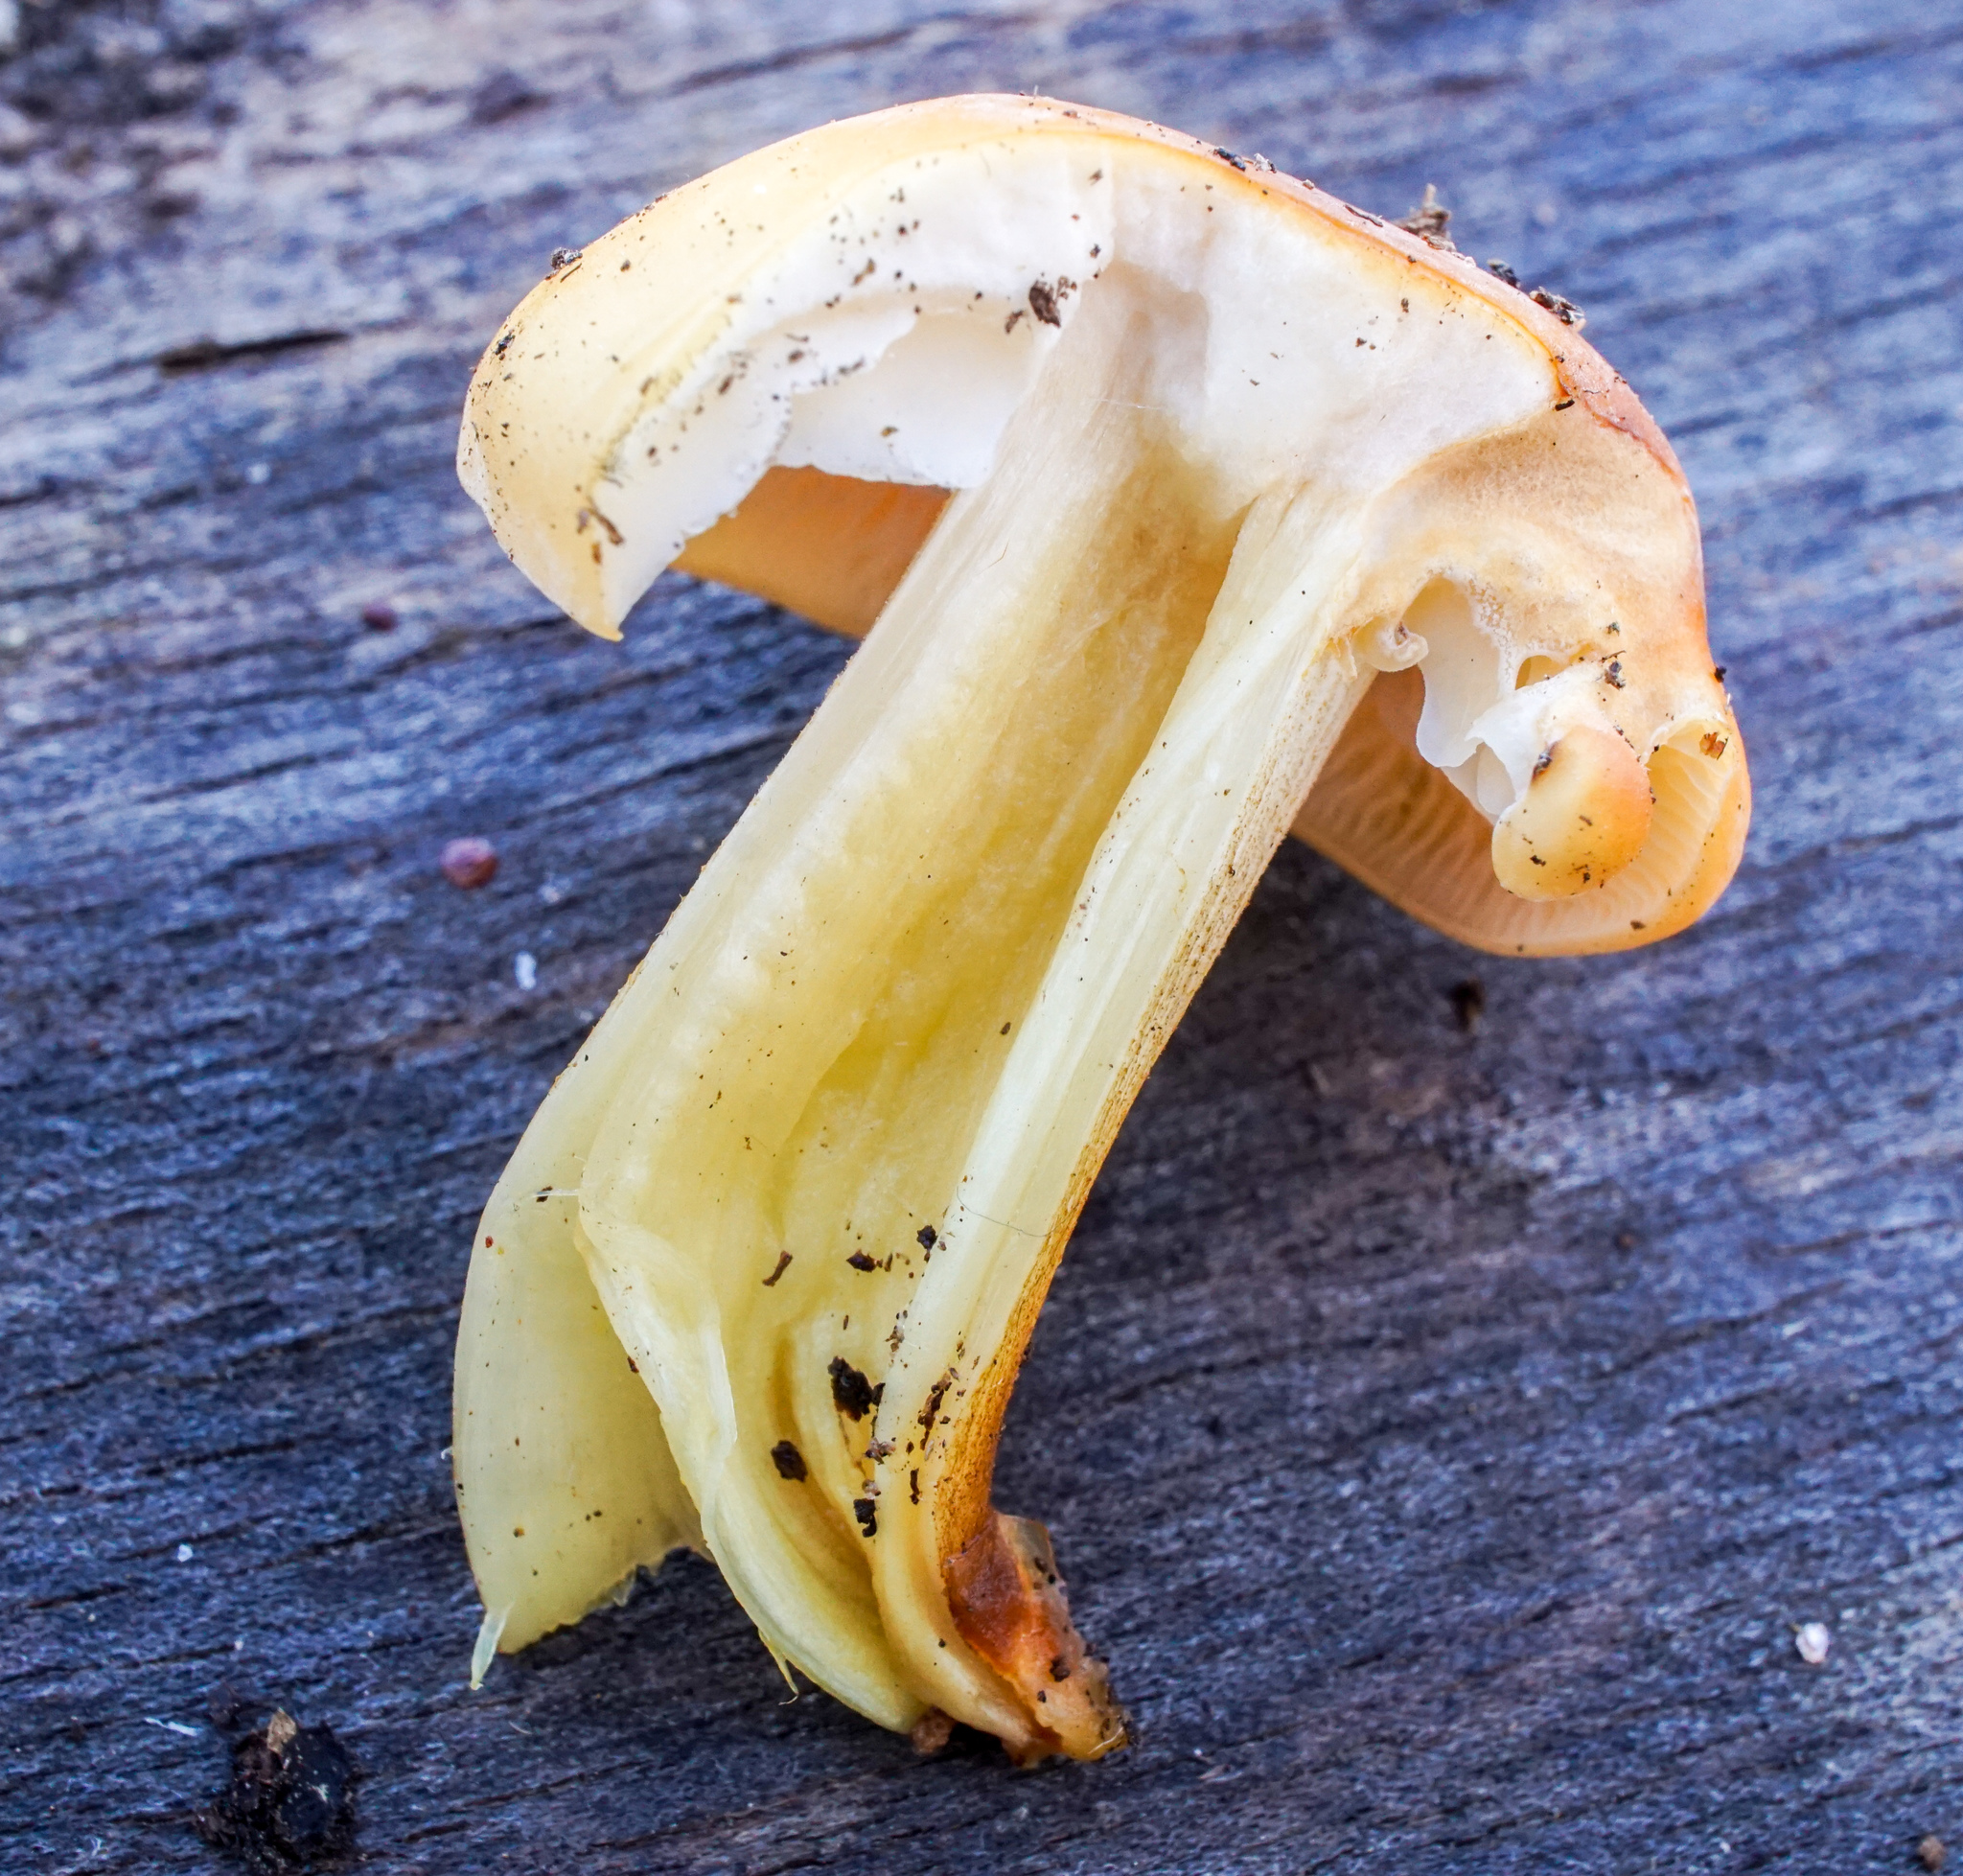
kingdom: Fungi
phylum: Basidiomycota
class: Agaricomycetes
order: Agaricales
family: Physalacriaceae
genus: Flammulina
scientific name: Flammulina velutipes
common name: Velvet shank
